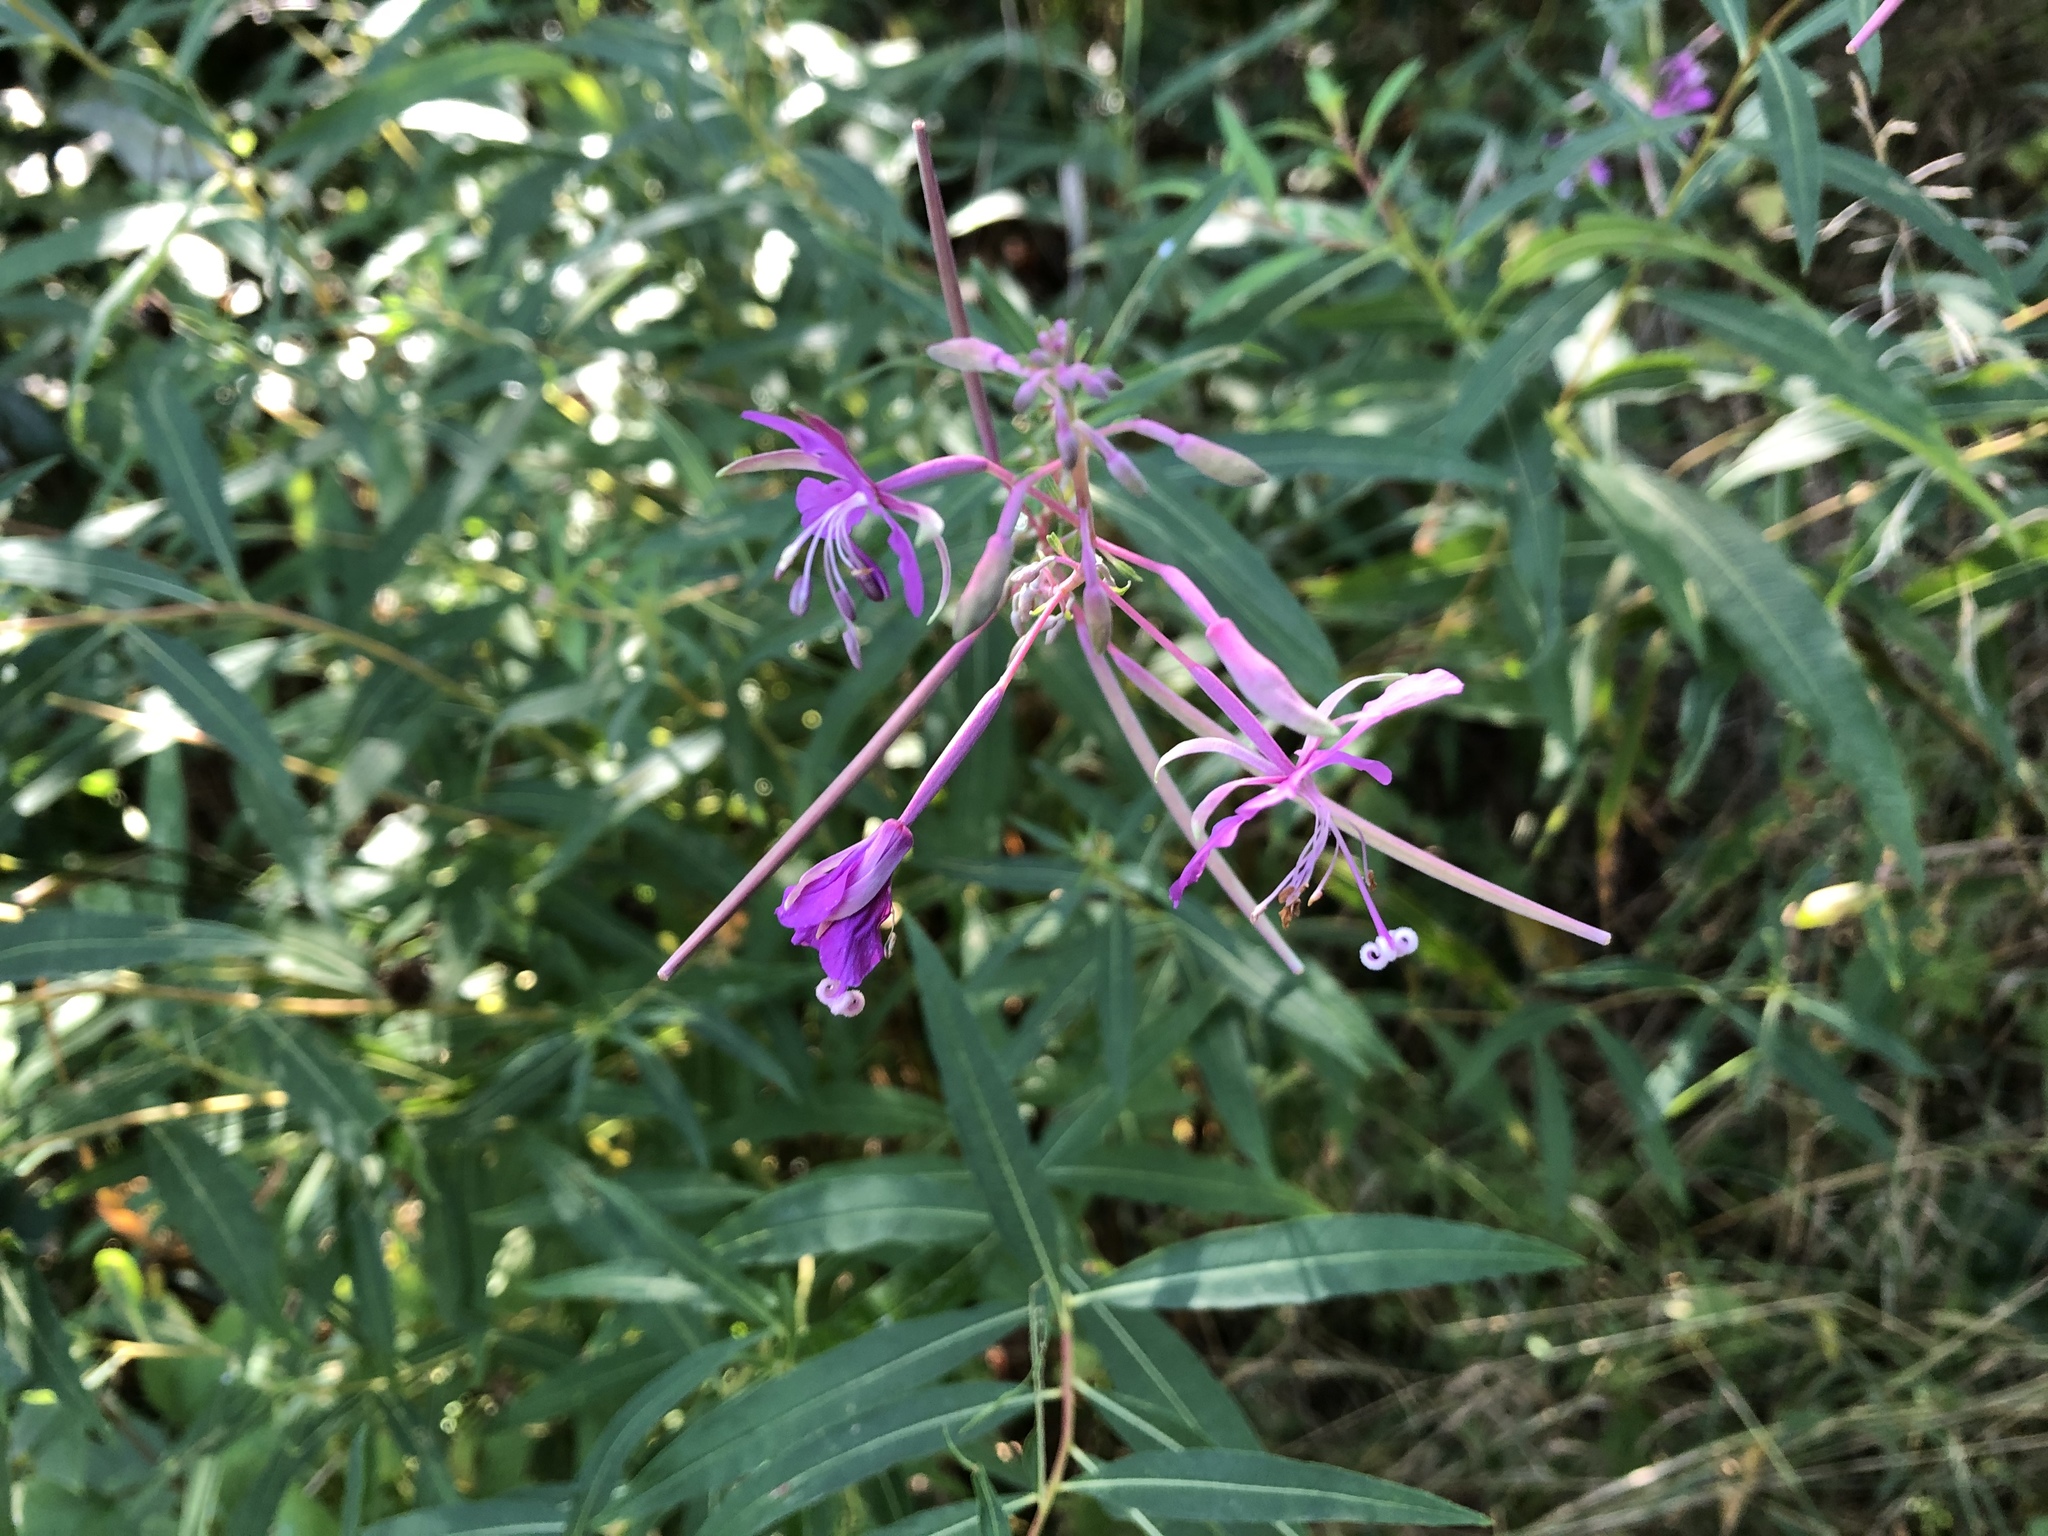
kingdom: Plantae
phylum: Tracheophyta
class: Magnoliopsida
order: Myrtales
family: Onagraceae
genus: Chamaenerion
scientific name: Chamaenerion angustifolium
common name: Fireweed
